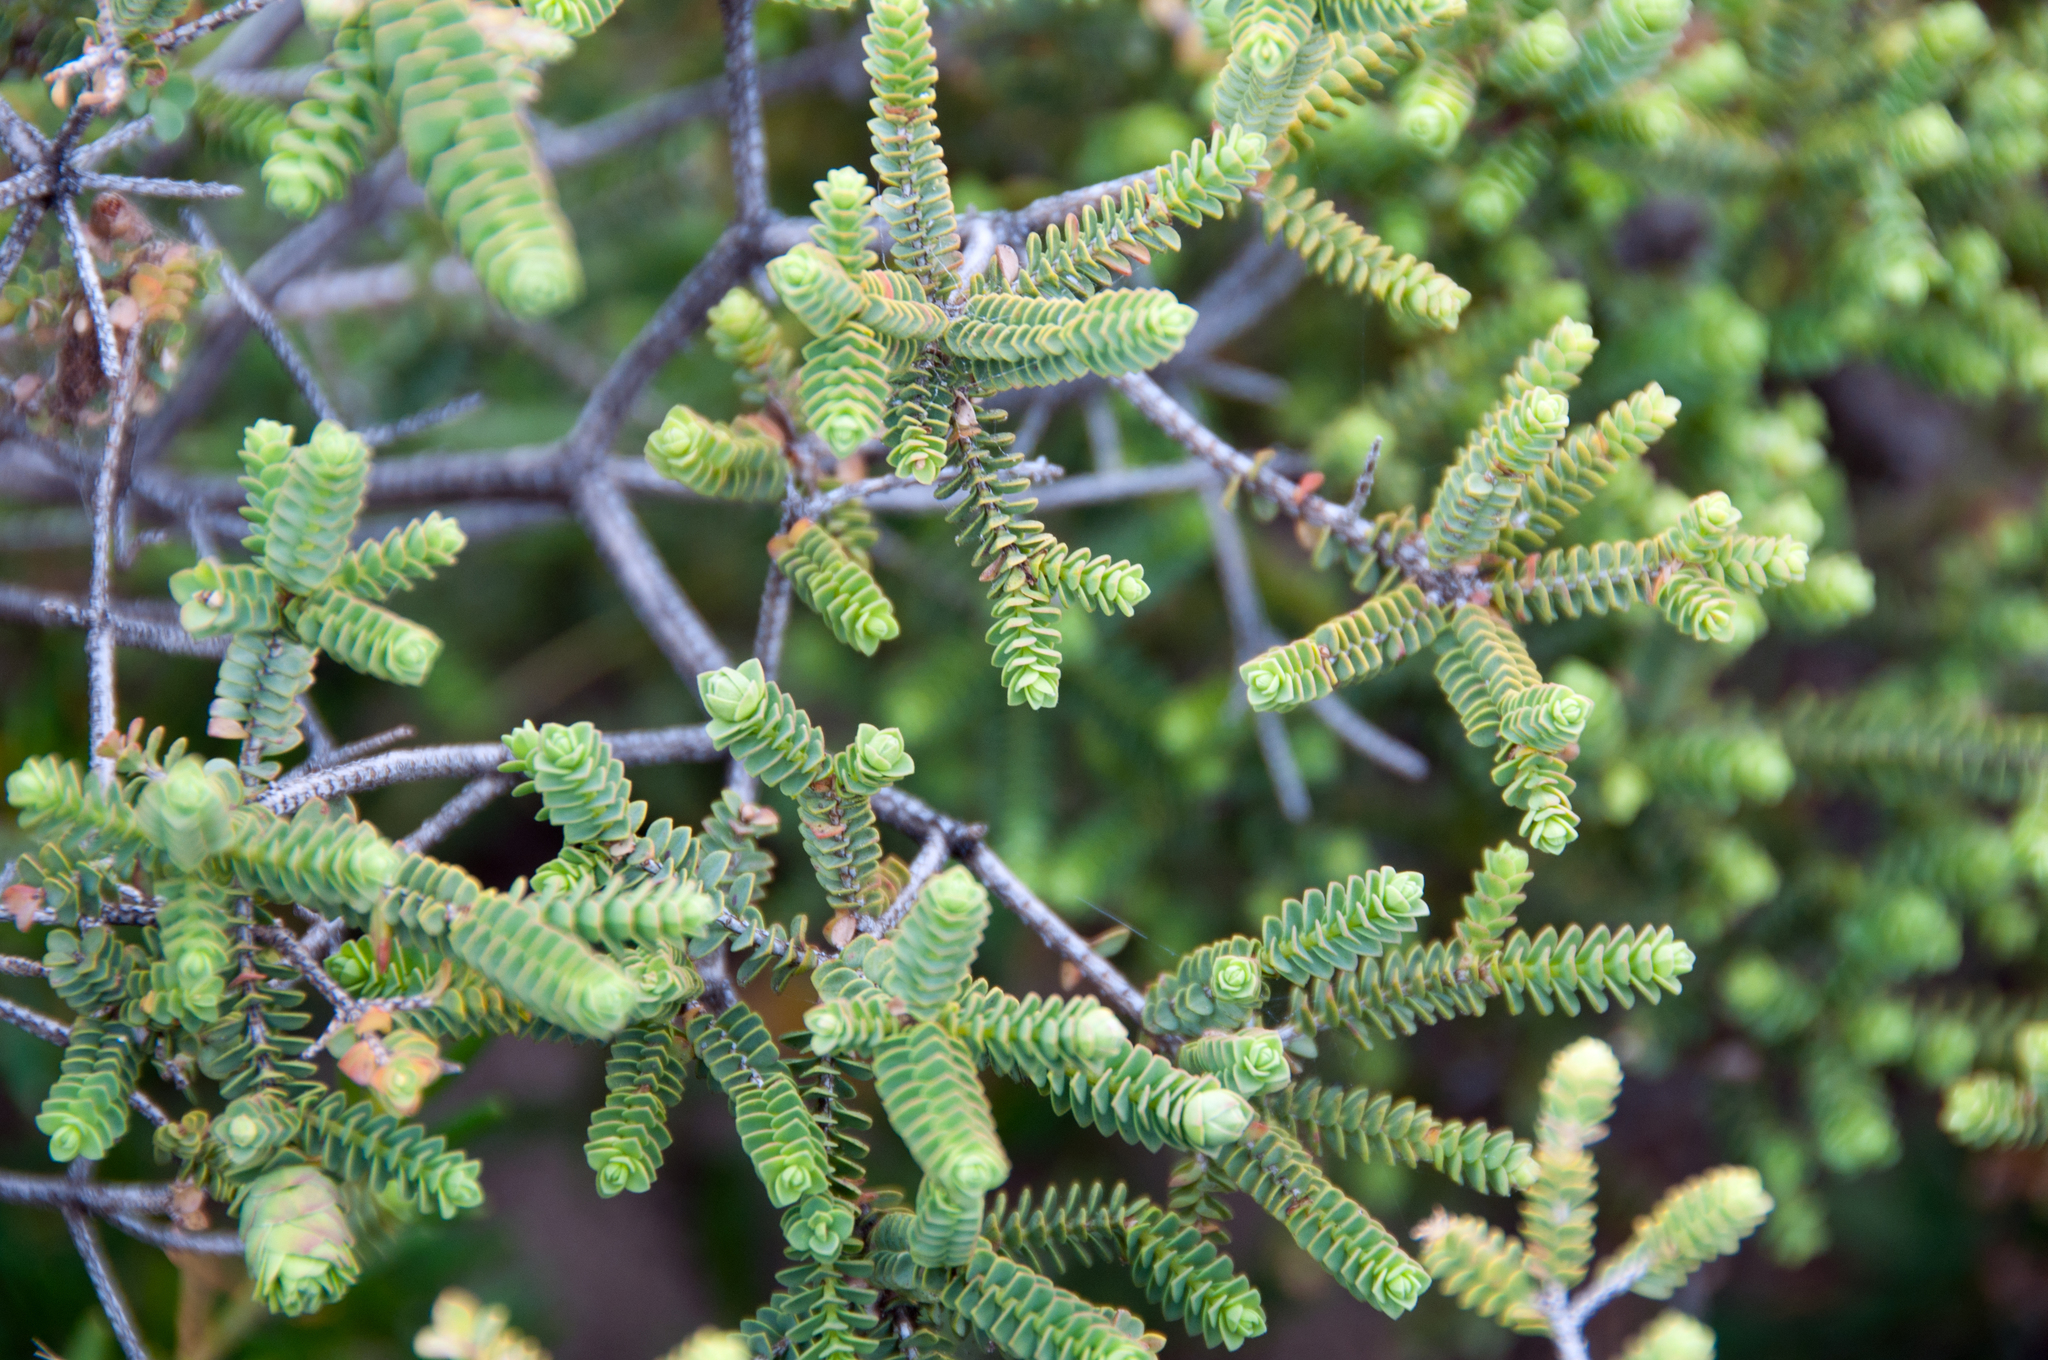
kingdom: Plantae
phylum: Tracheophyta
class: Magnoliopsida
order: Myrtales
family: Myrtaceae
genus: Melaleuca
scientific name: Melaleuca gibbosa
